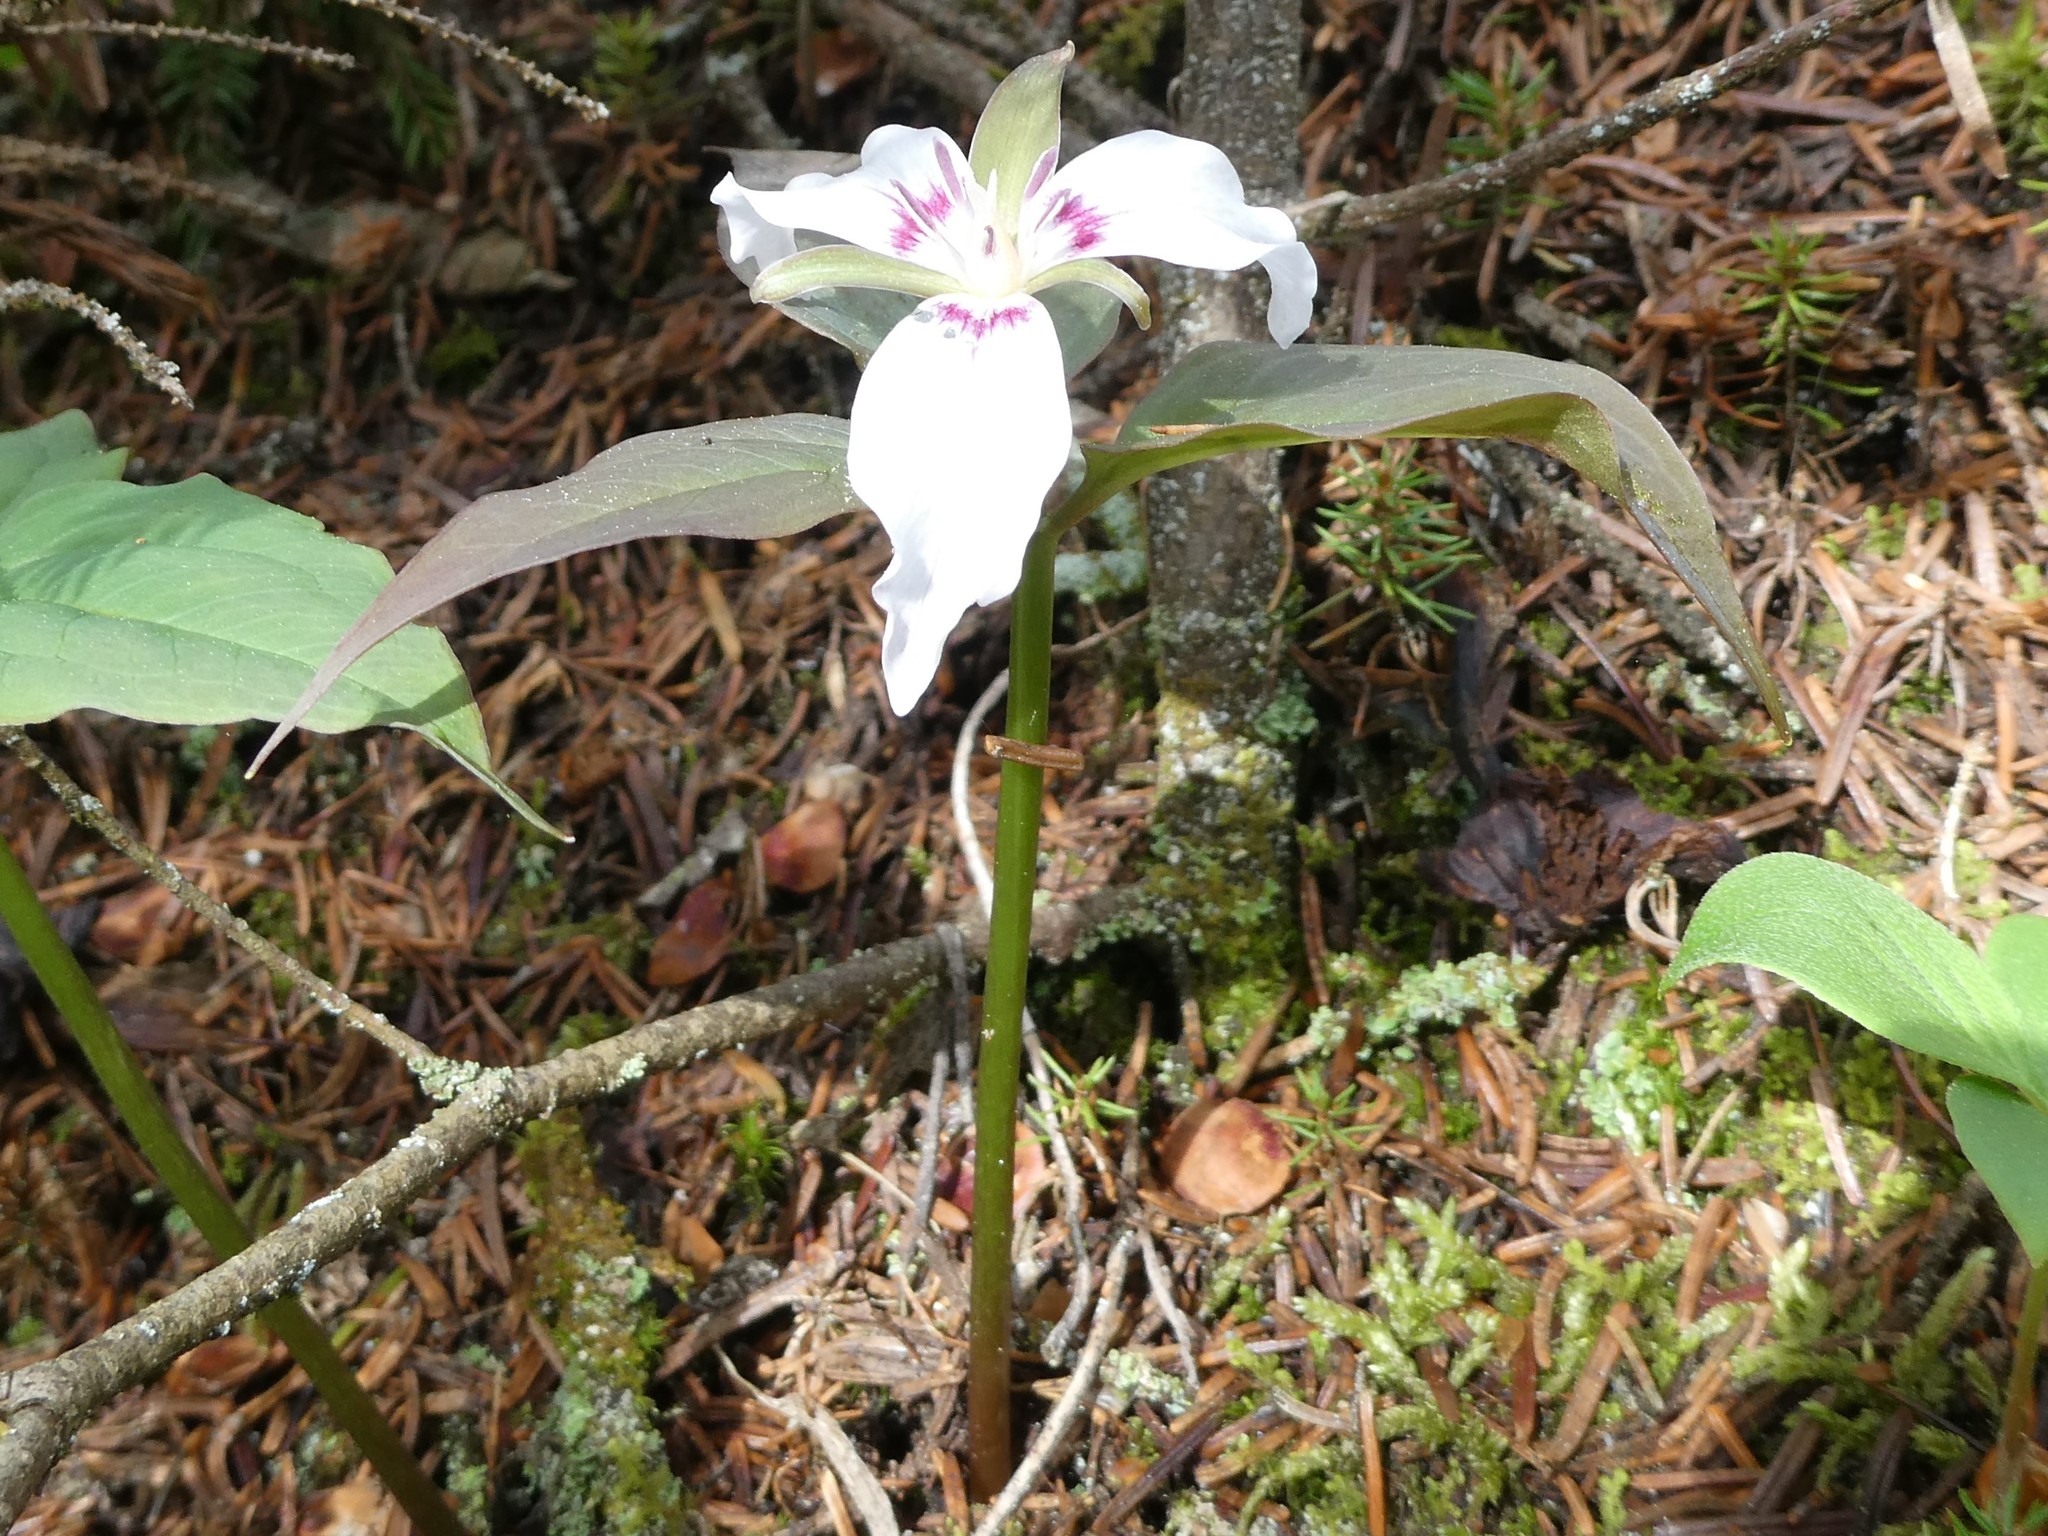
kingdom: Plantae
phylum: Tracheophyta
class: Liliopsida
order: Liliales
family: Melanthiaceae
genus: Trillium
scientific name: Trillium undulatum
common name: Paint trillium
